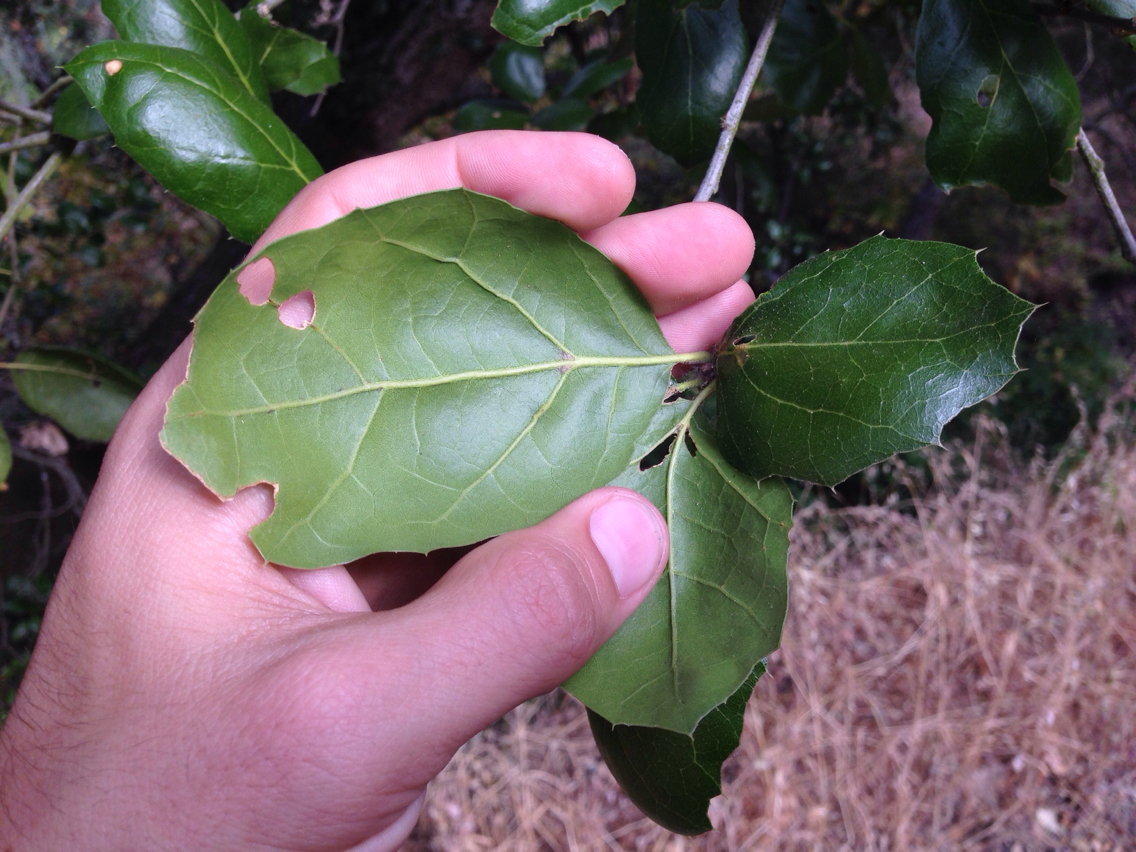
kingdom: Plantae
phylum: Tracheophyta
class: Magnoliopsida
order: Fagales
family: Fagaceae
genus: Quercus
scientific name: Quercus agrifolia
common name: California live oak
